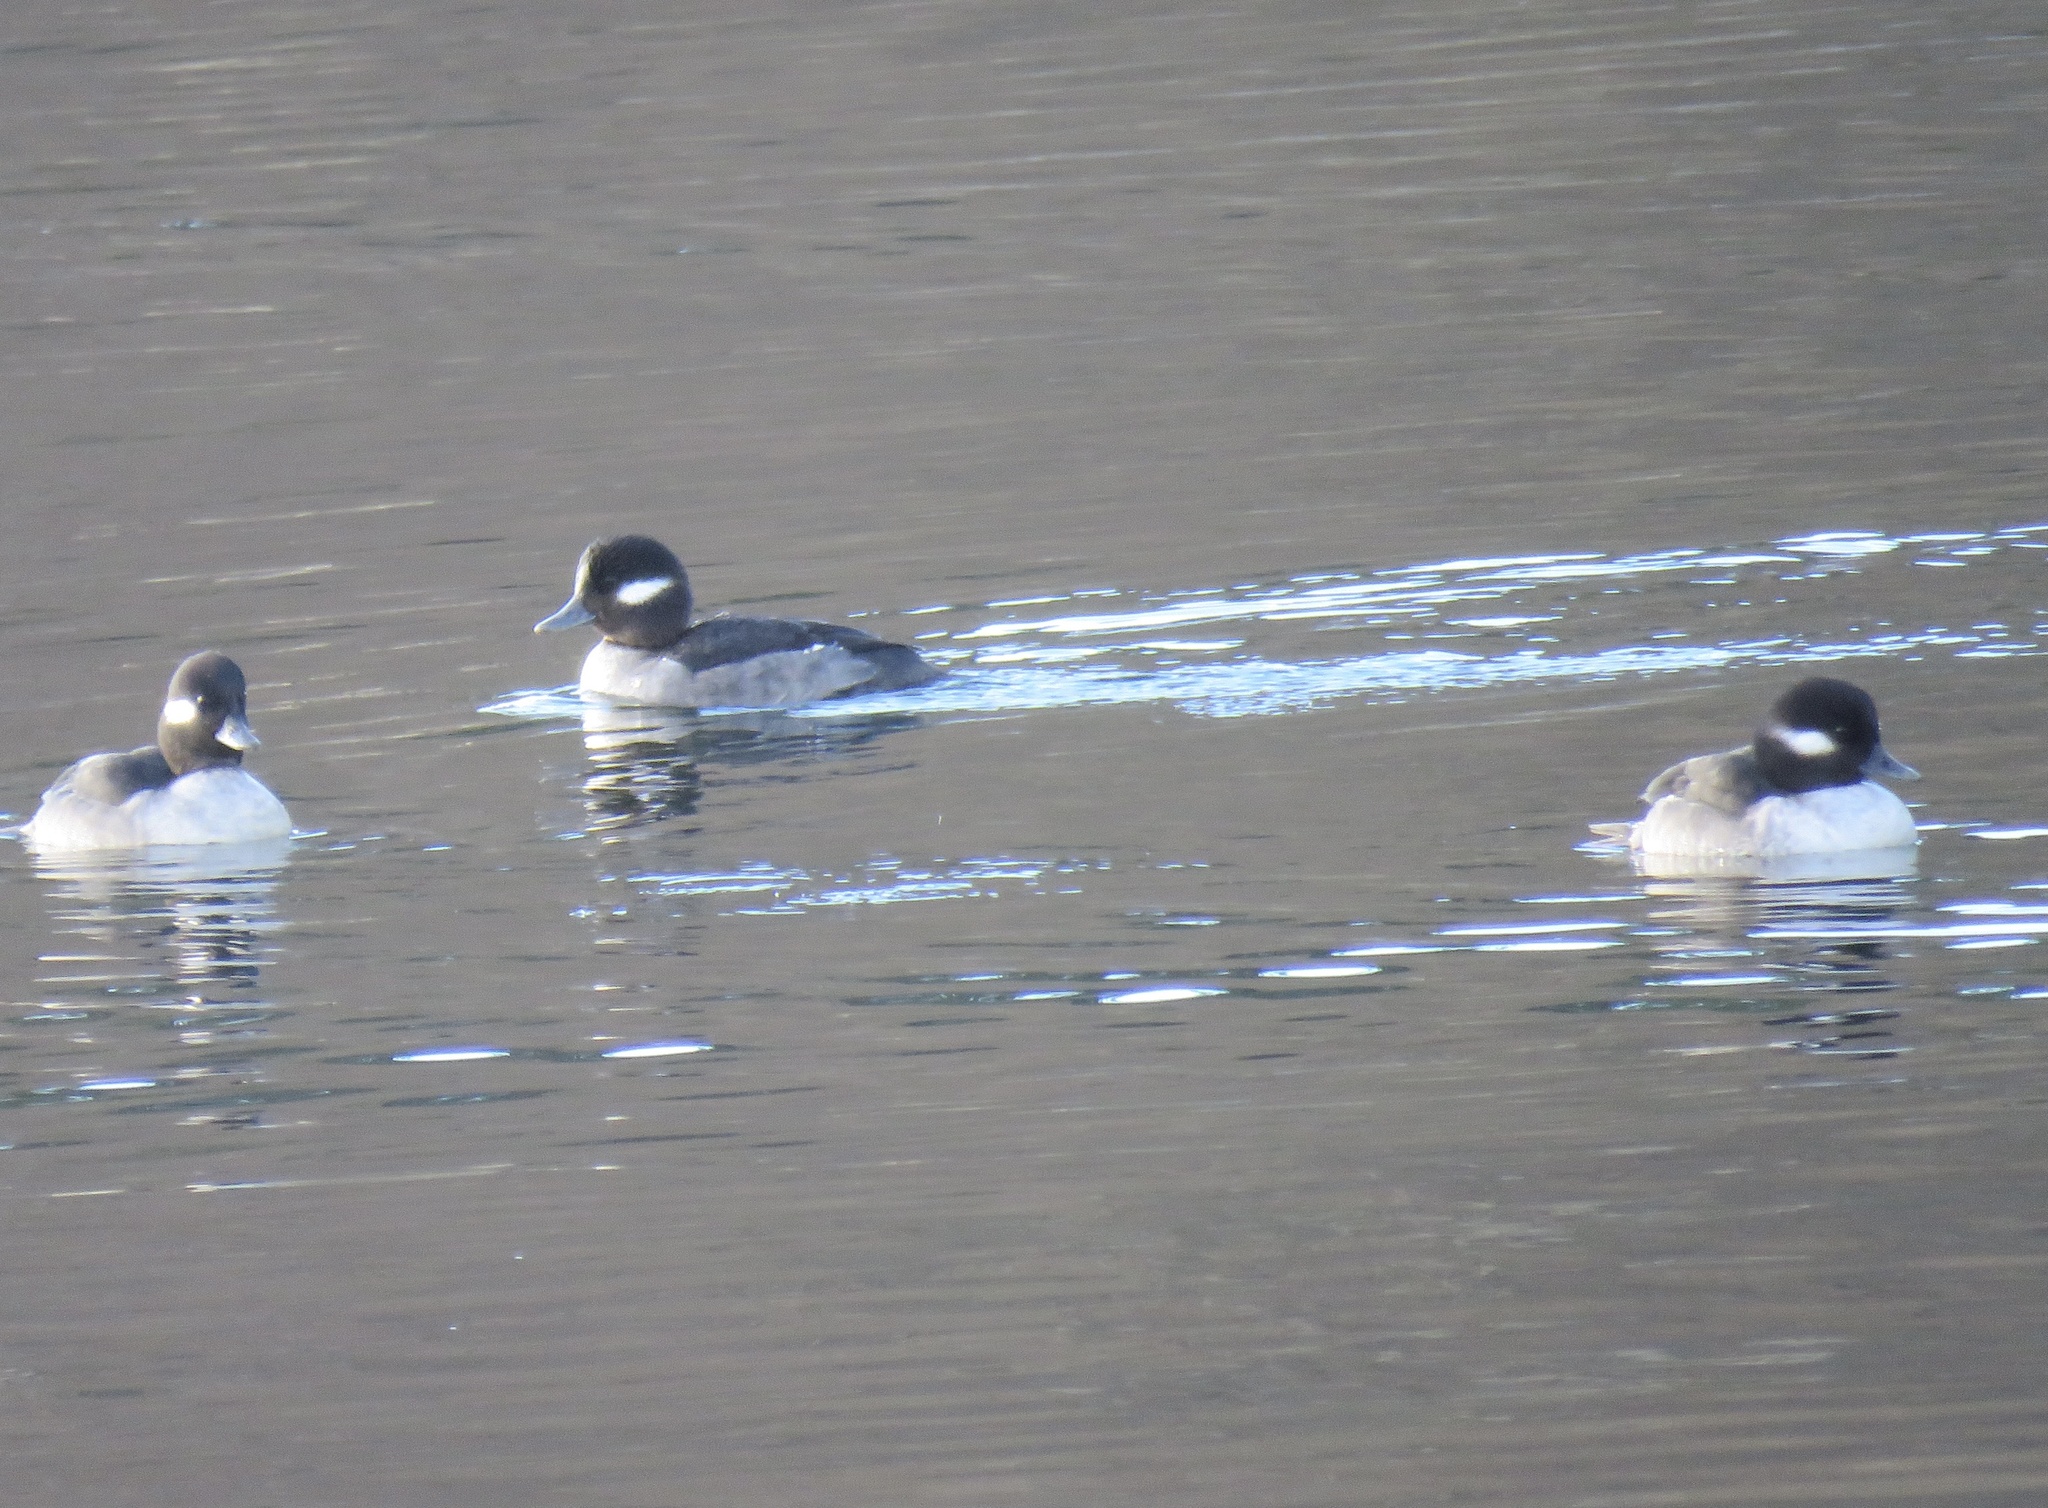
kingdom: Animalia
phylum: Chordata
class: Aves
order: Anseriformes
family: Anatidae
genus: Bucephala
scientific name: Bucephala albeola
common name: Bufflehead
